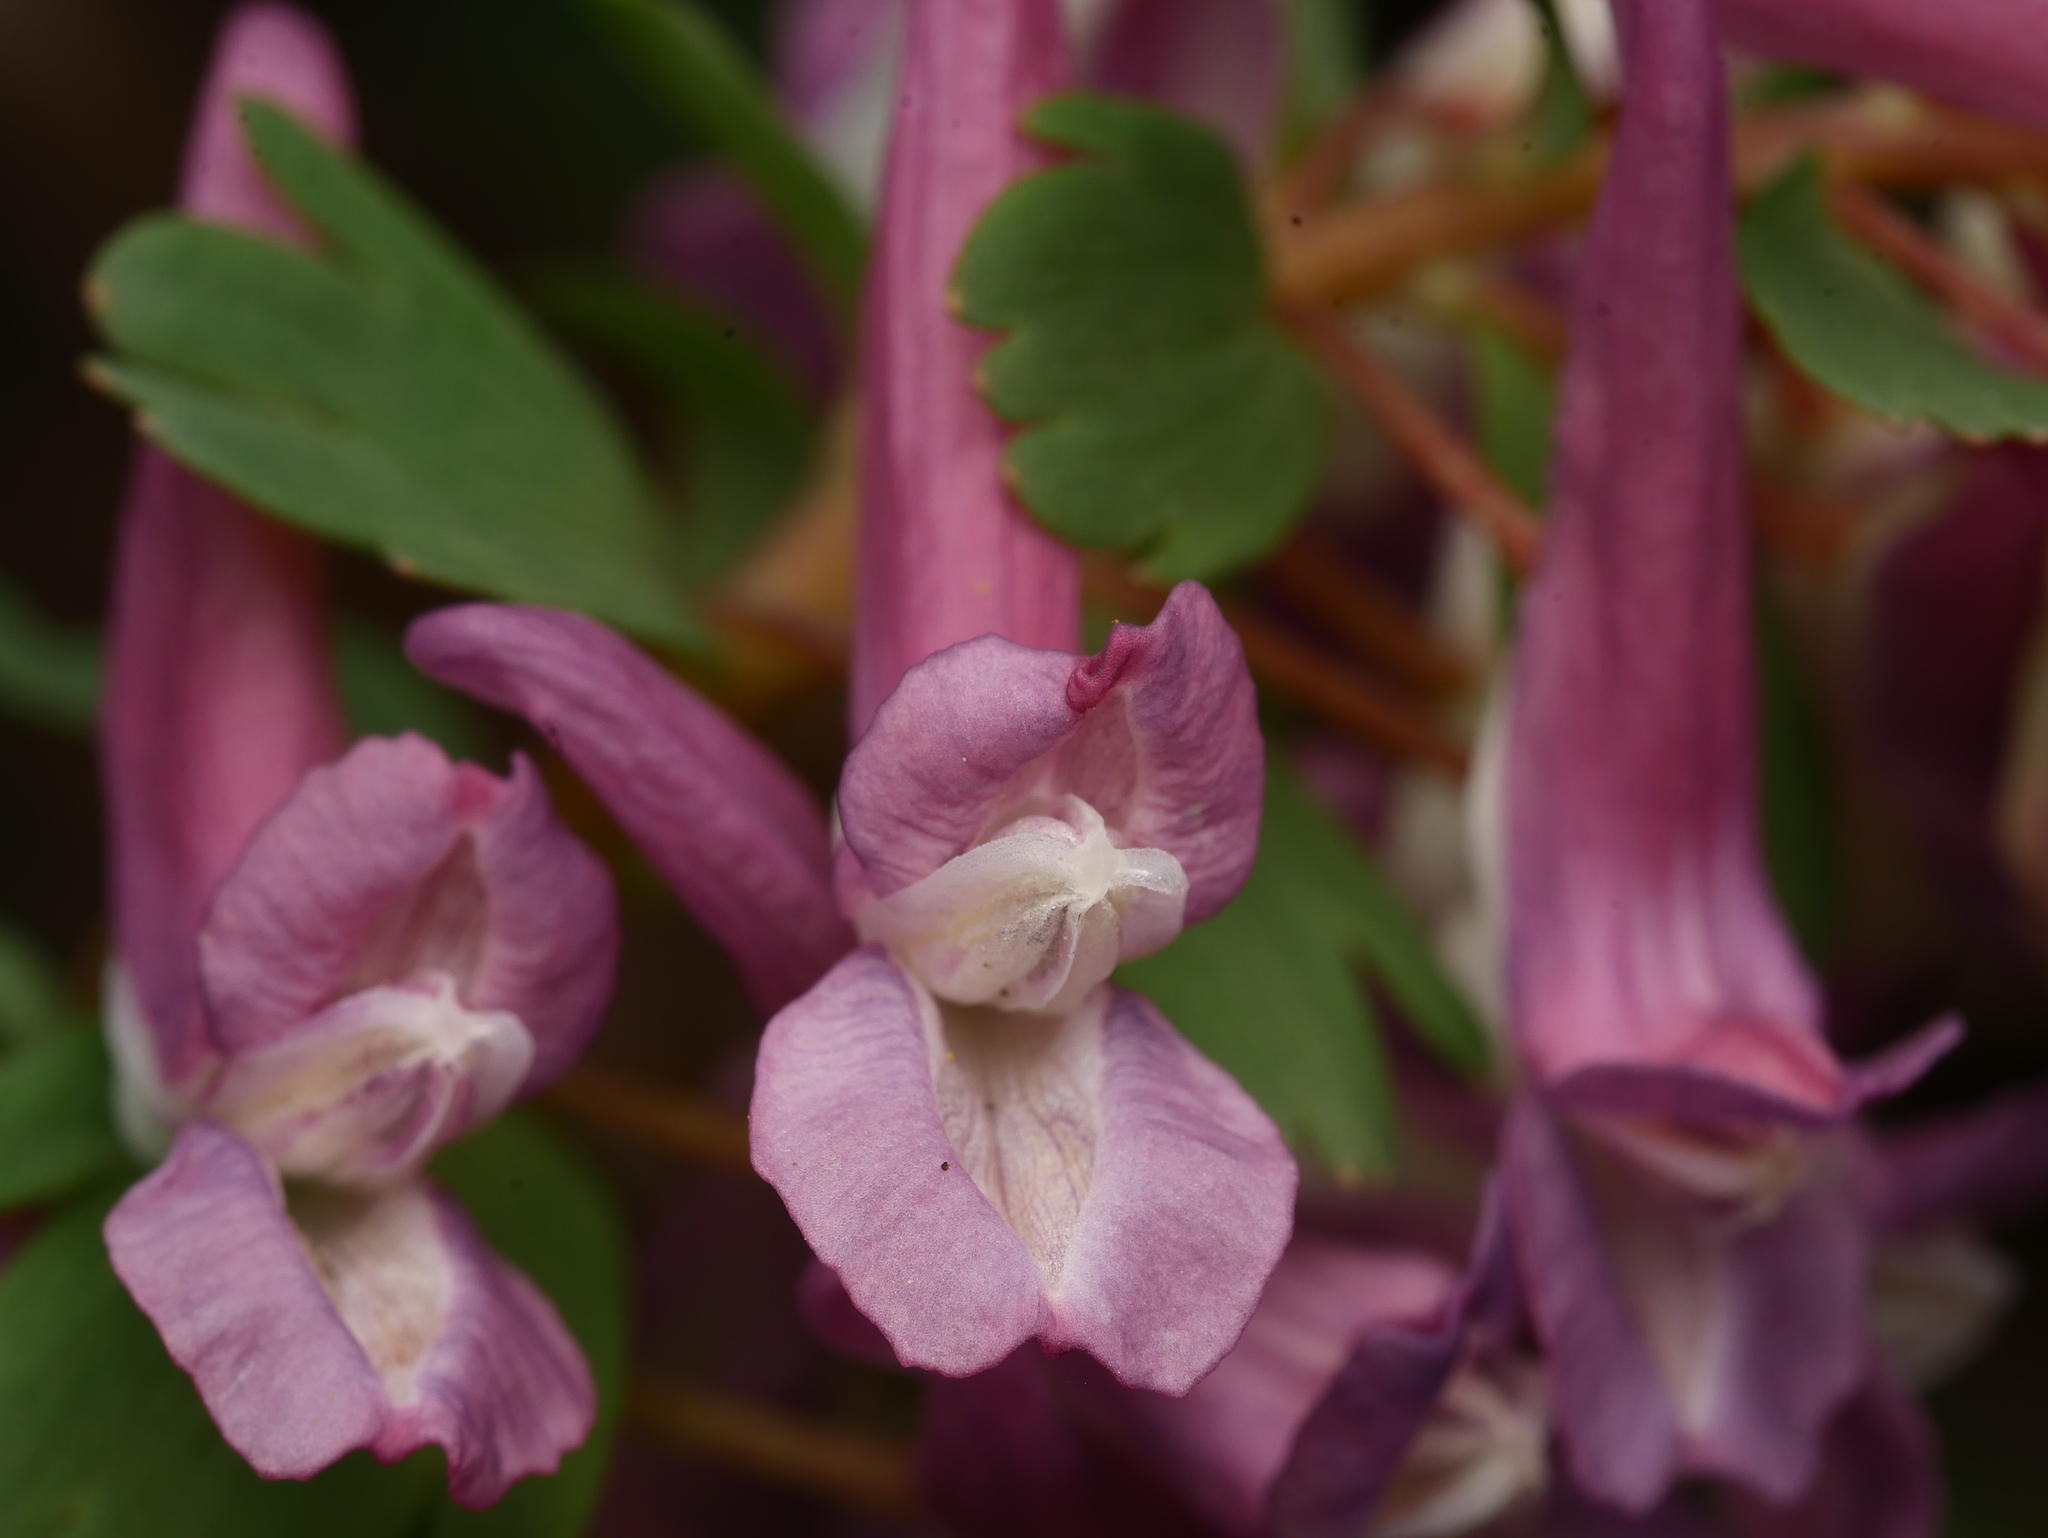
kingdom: Plantae
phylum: Tracheophyta
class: Magnoliopsida
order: Ranunculales
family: Papaveraceae
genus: Corydalis
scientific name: Corydalis solida
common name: Bird-in-a-bush
